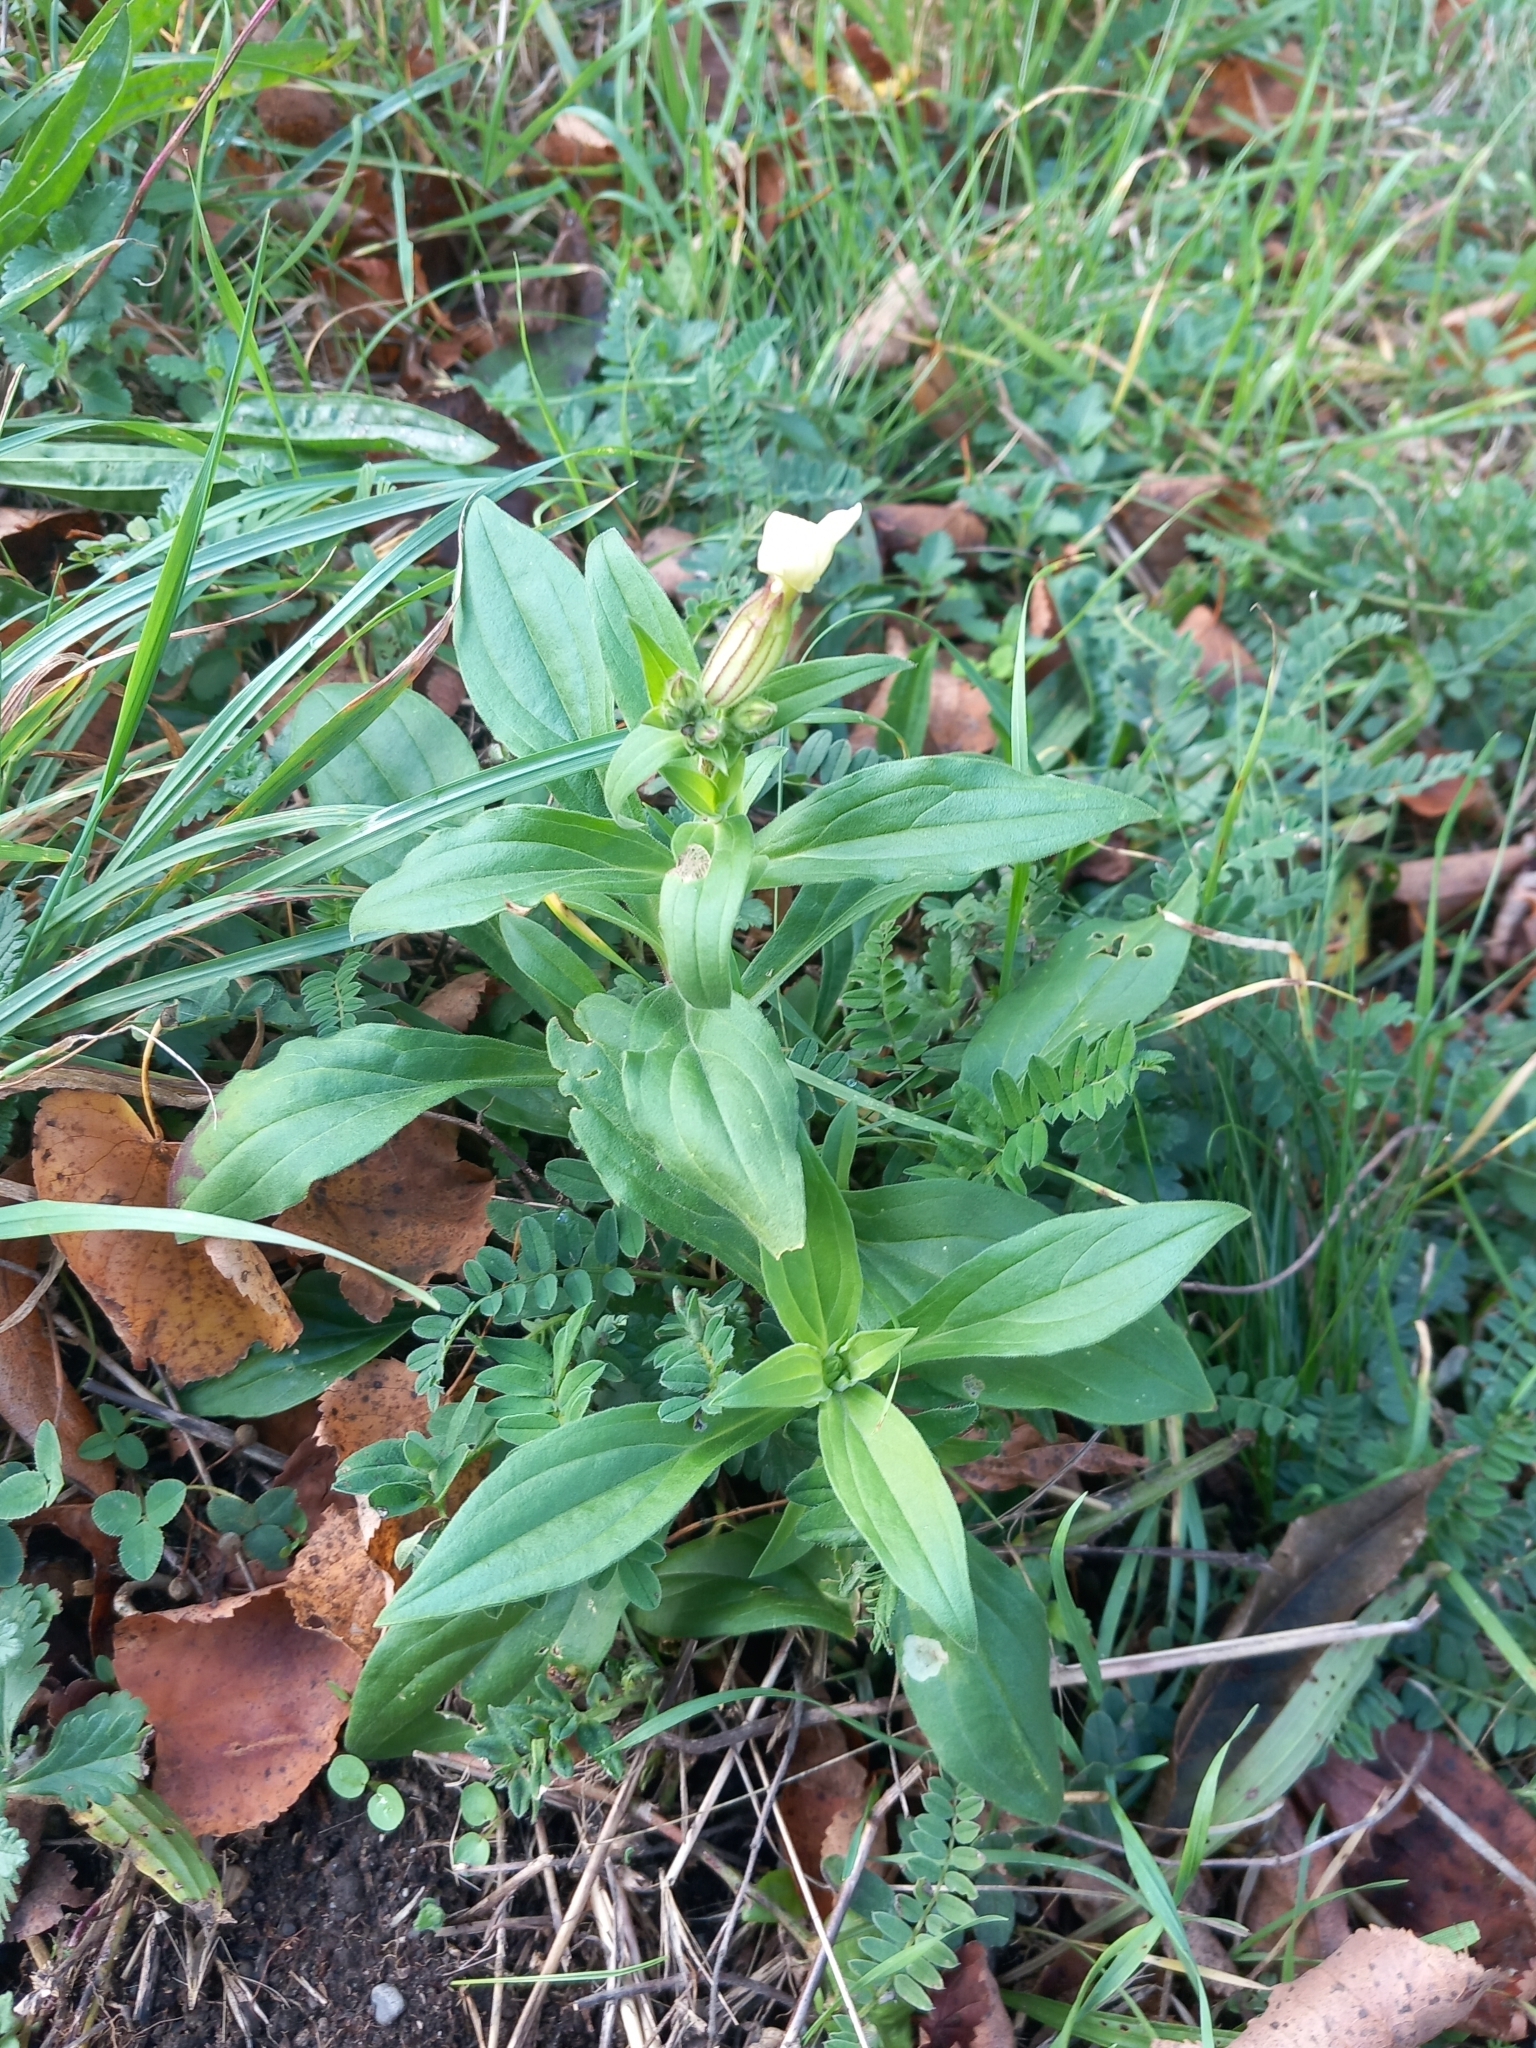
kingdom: Plantae
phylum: Tracheophyta
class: Magnoliopsida
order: Caryophyllales
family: Caryophyllaceae
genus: Silene
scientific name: Silene latifolia
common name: White campion
